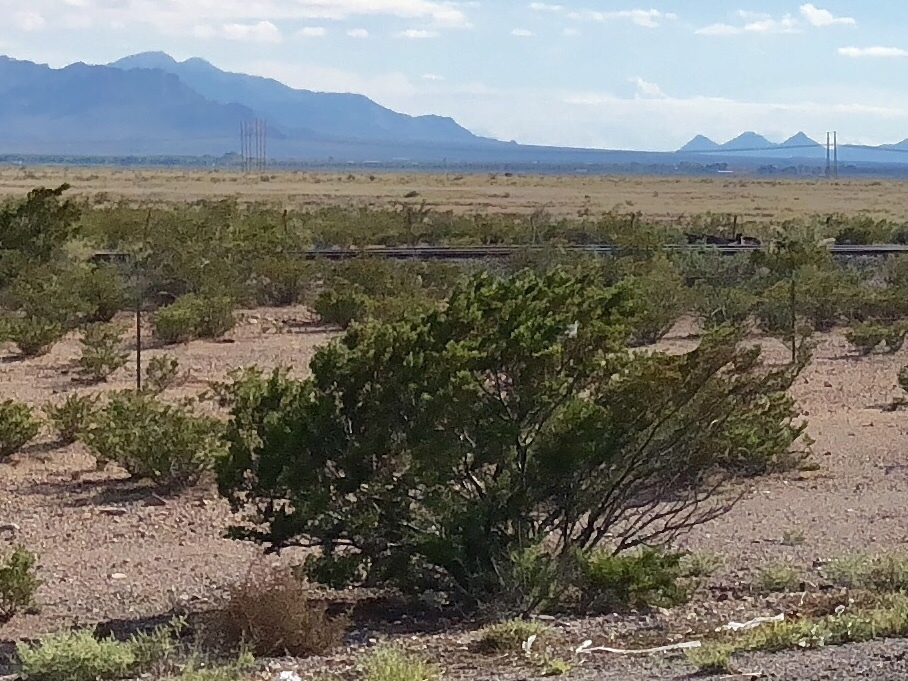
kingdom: Plantae
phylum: Tracheophyta
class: Magnoliopsida
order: Zygophyllales
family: Zygophyllaceae
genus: Larrea
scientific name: Larrea tridentata
